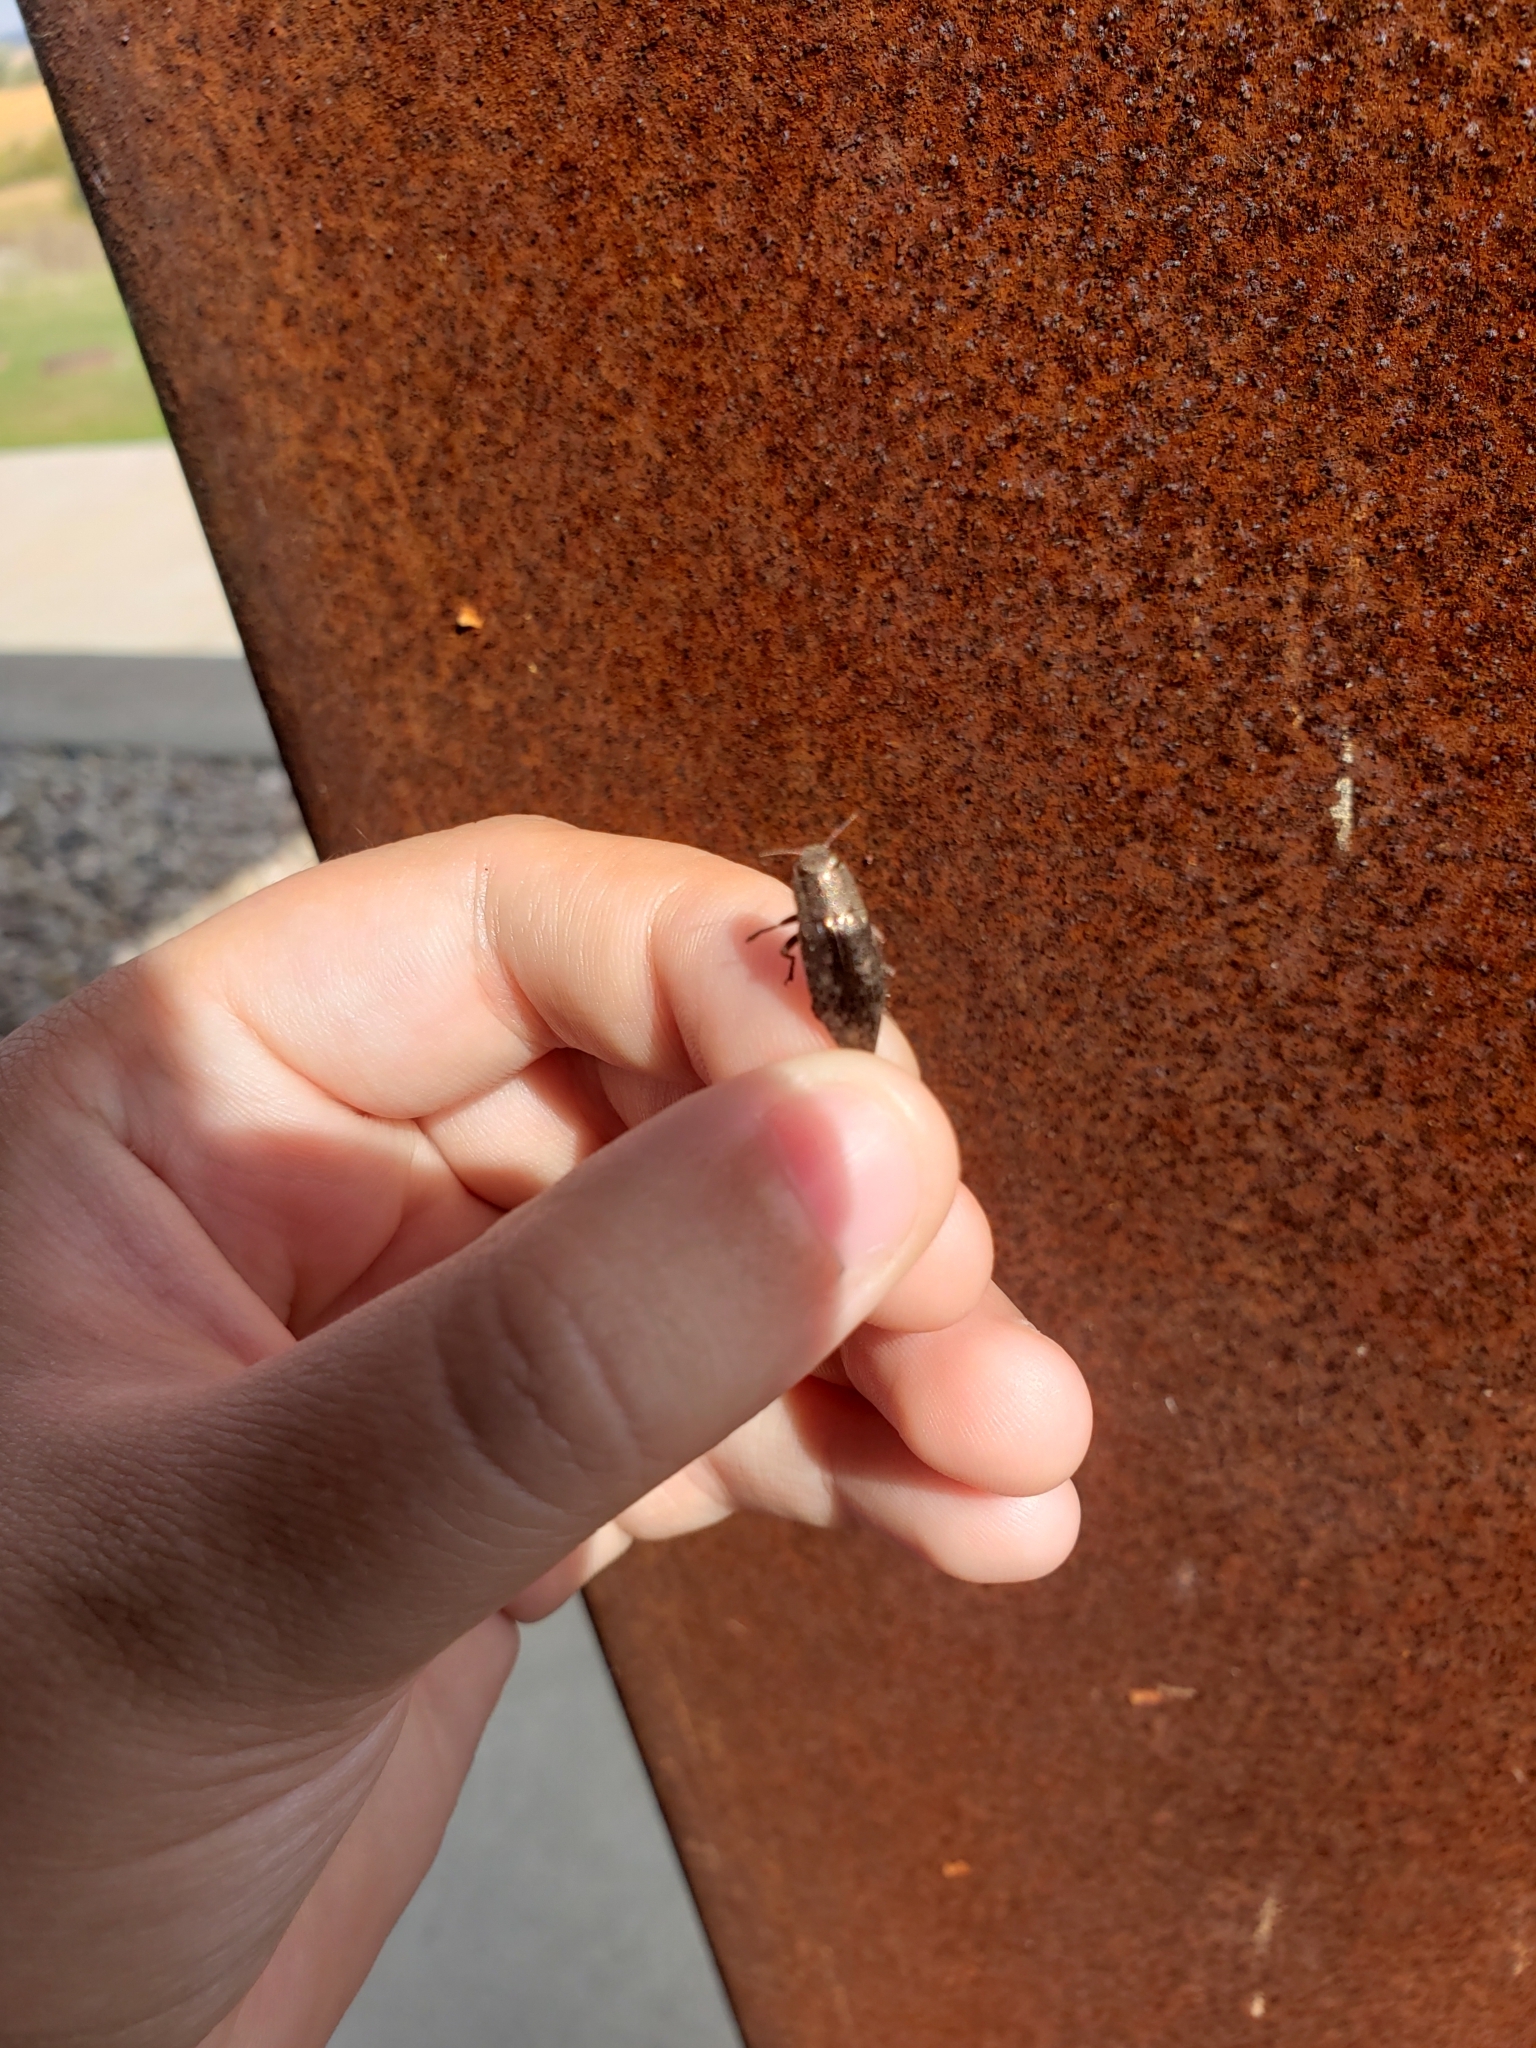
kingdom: Animalia
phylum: Arthropoda
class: Insecta
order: Coleoptera
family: Buprestidae
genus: Dicerca
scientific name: Dicerca lurida
